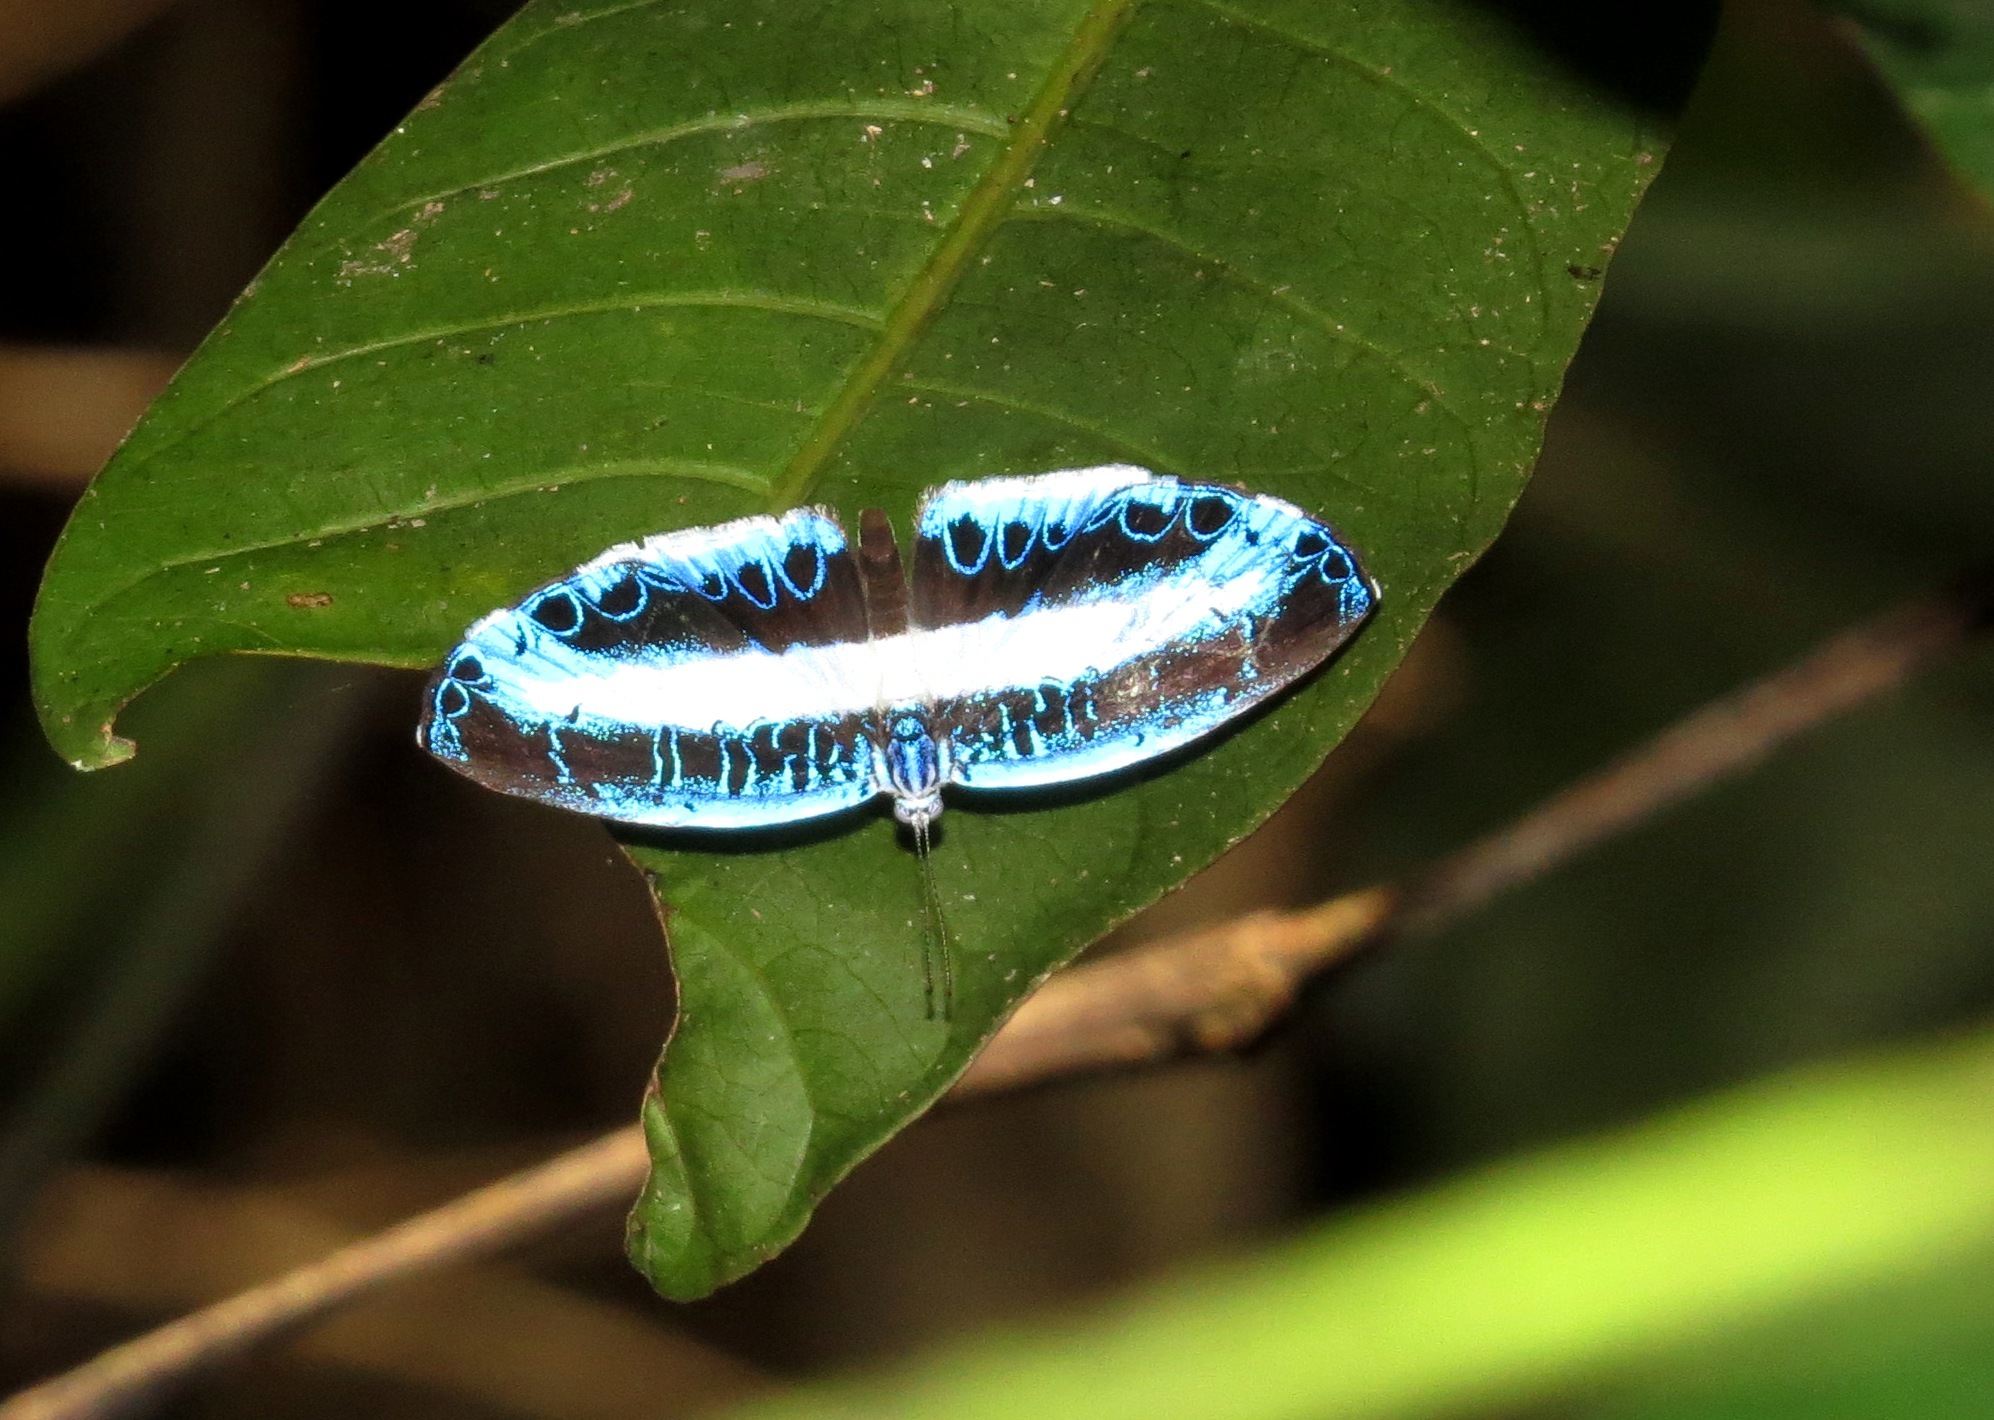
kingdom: Animalia
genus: Nymphidium
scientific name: Nymphidium mantus
